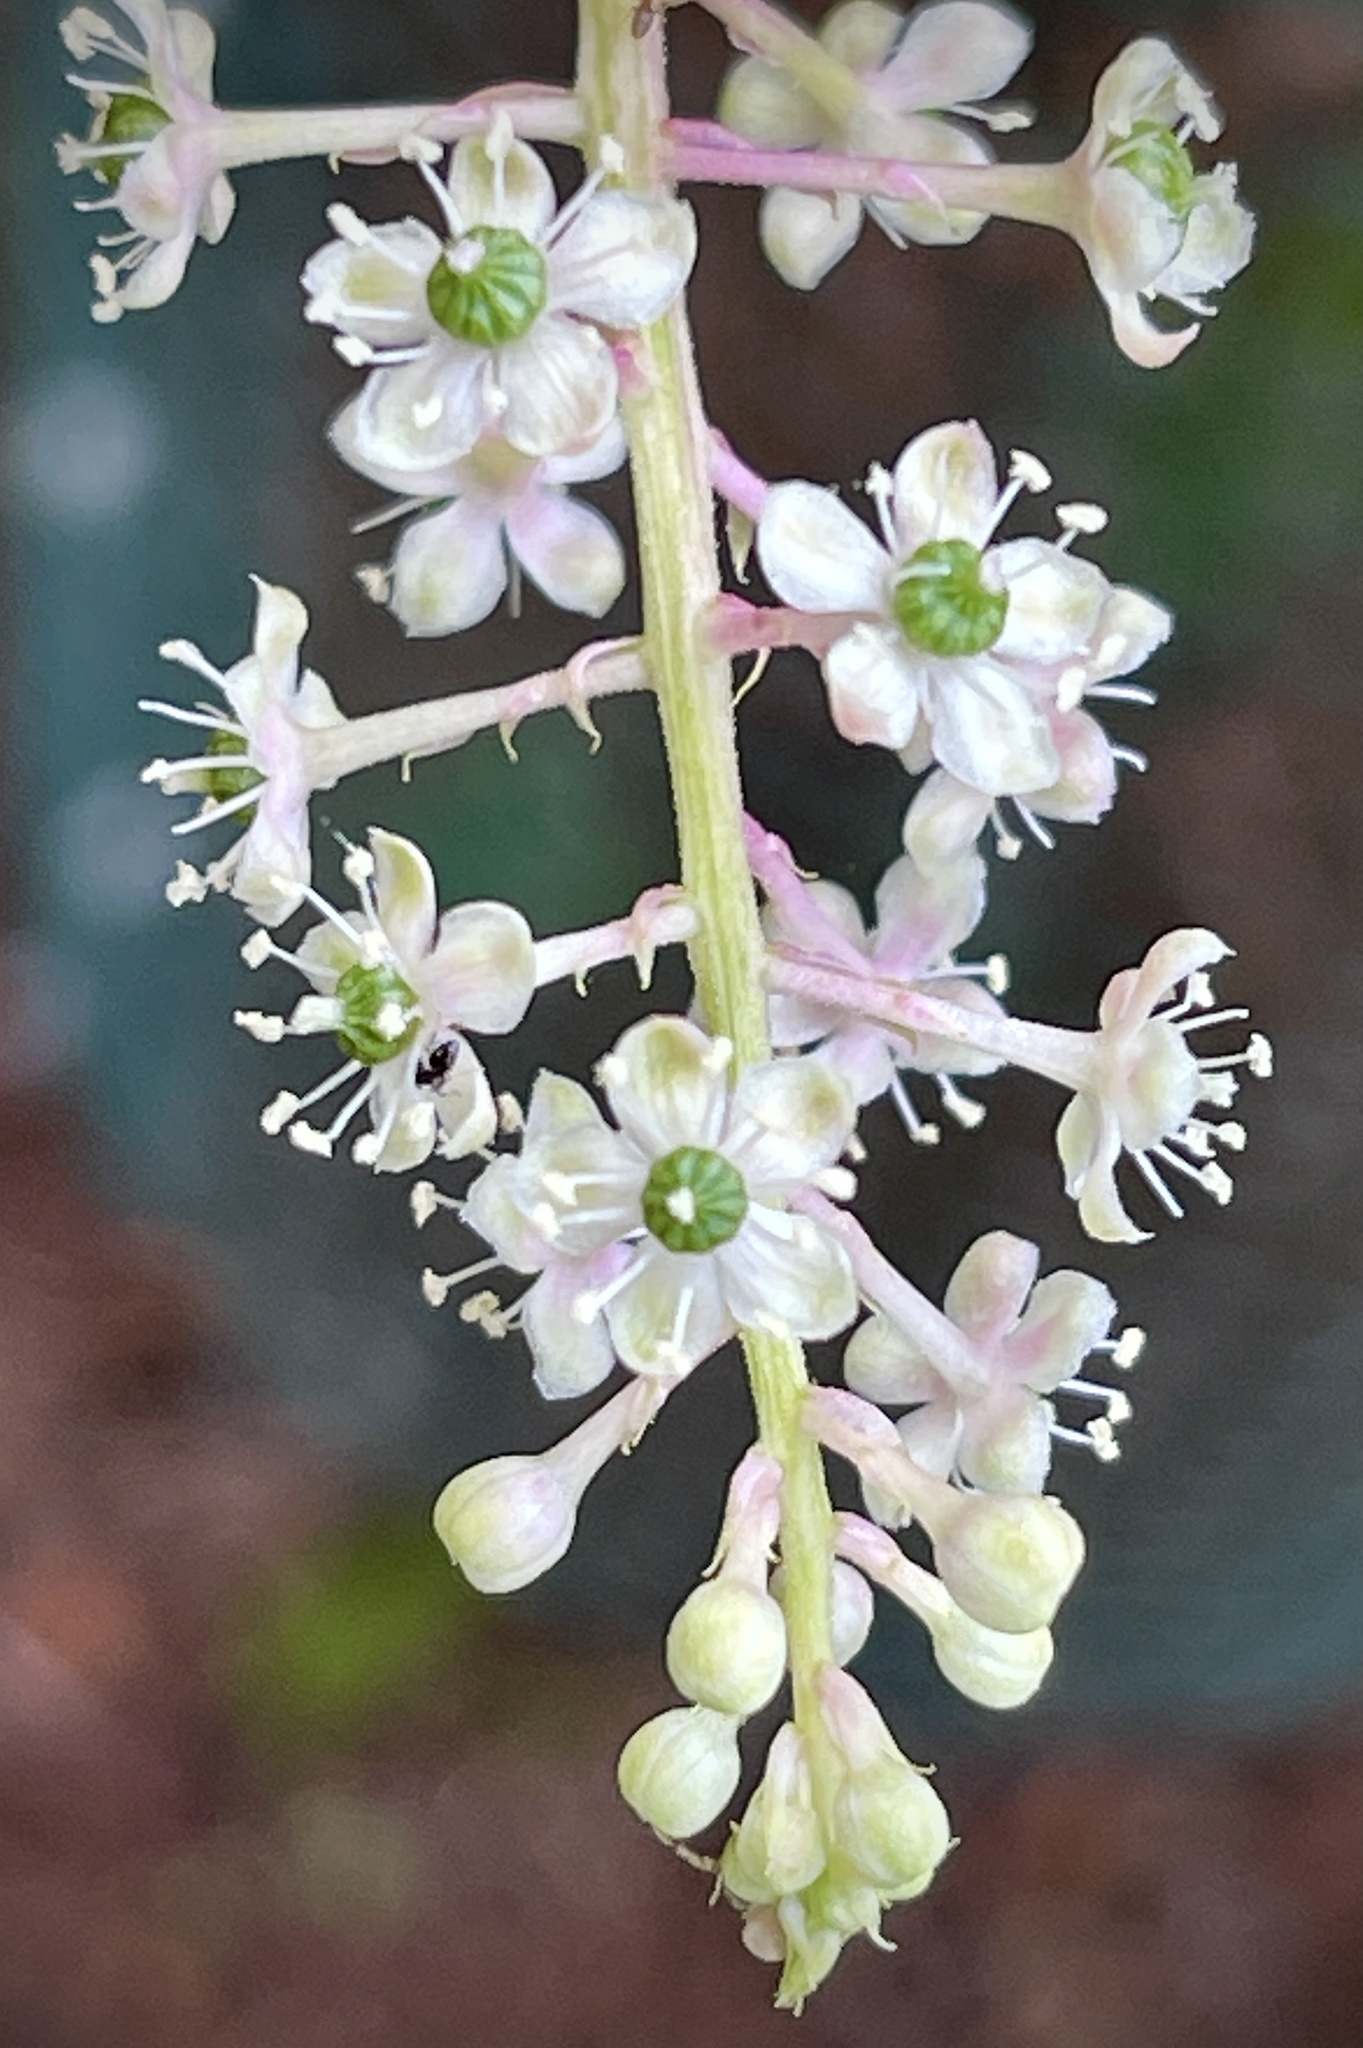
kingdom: Plantae
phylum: Tracheophyta
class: Magnoliopsida
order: Caryophyllales
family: Phytolaccaceae
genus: Phytolacca
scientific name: Phytolacca americana
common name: American pokeweed
